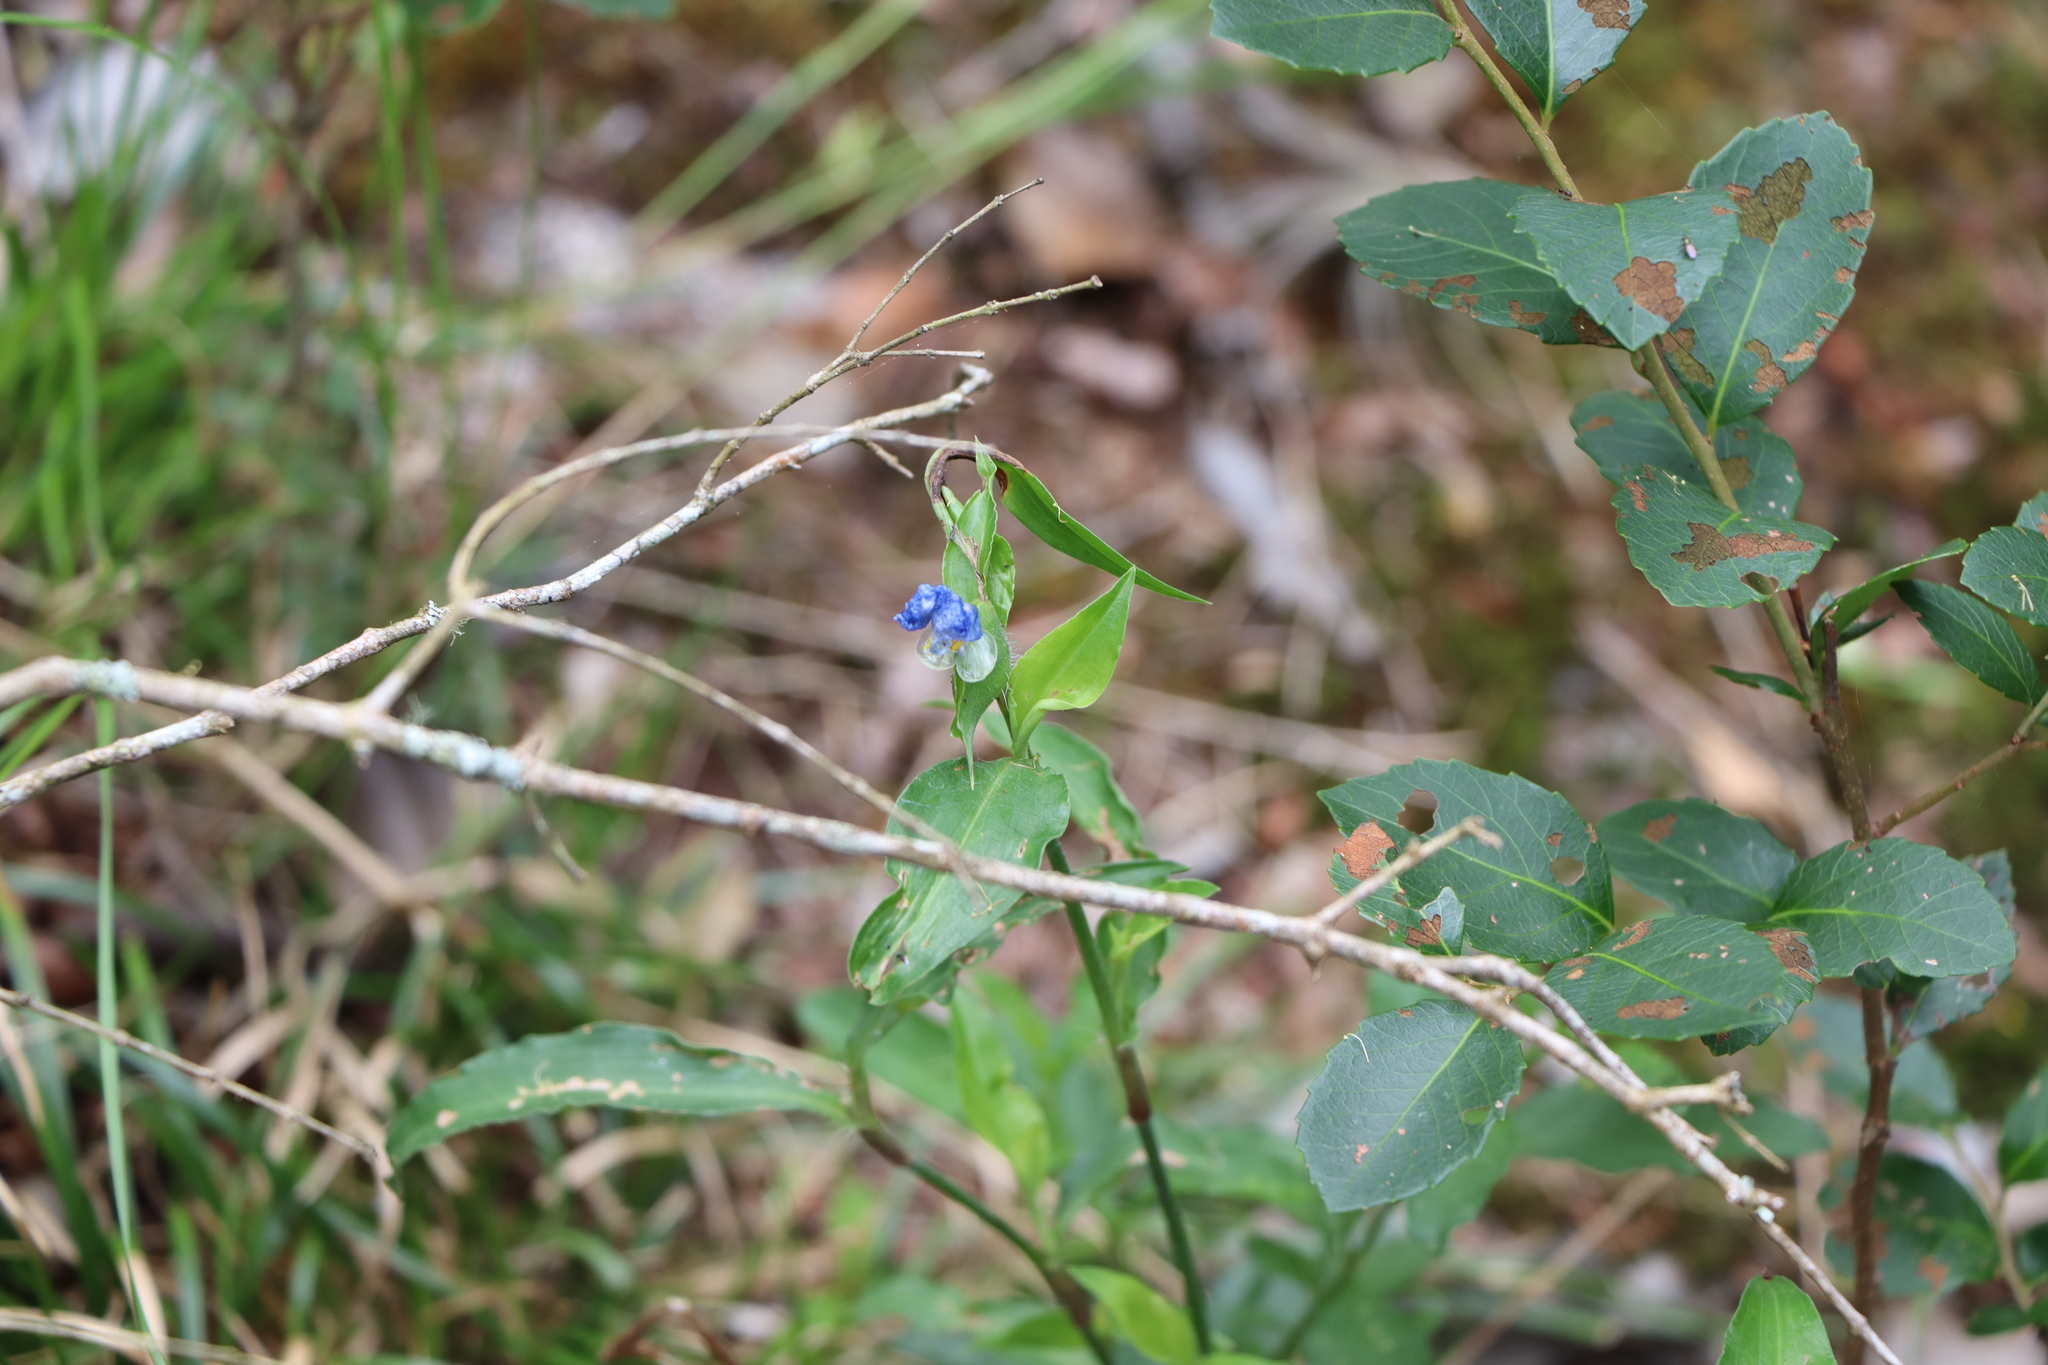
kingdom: Plantae
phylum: Tracheophyta
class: Liliopsida
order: Commelinales
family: Commelinaceae
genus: Commelina
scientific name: Commelina erecta
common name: Blousel blommetjie
